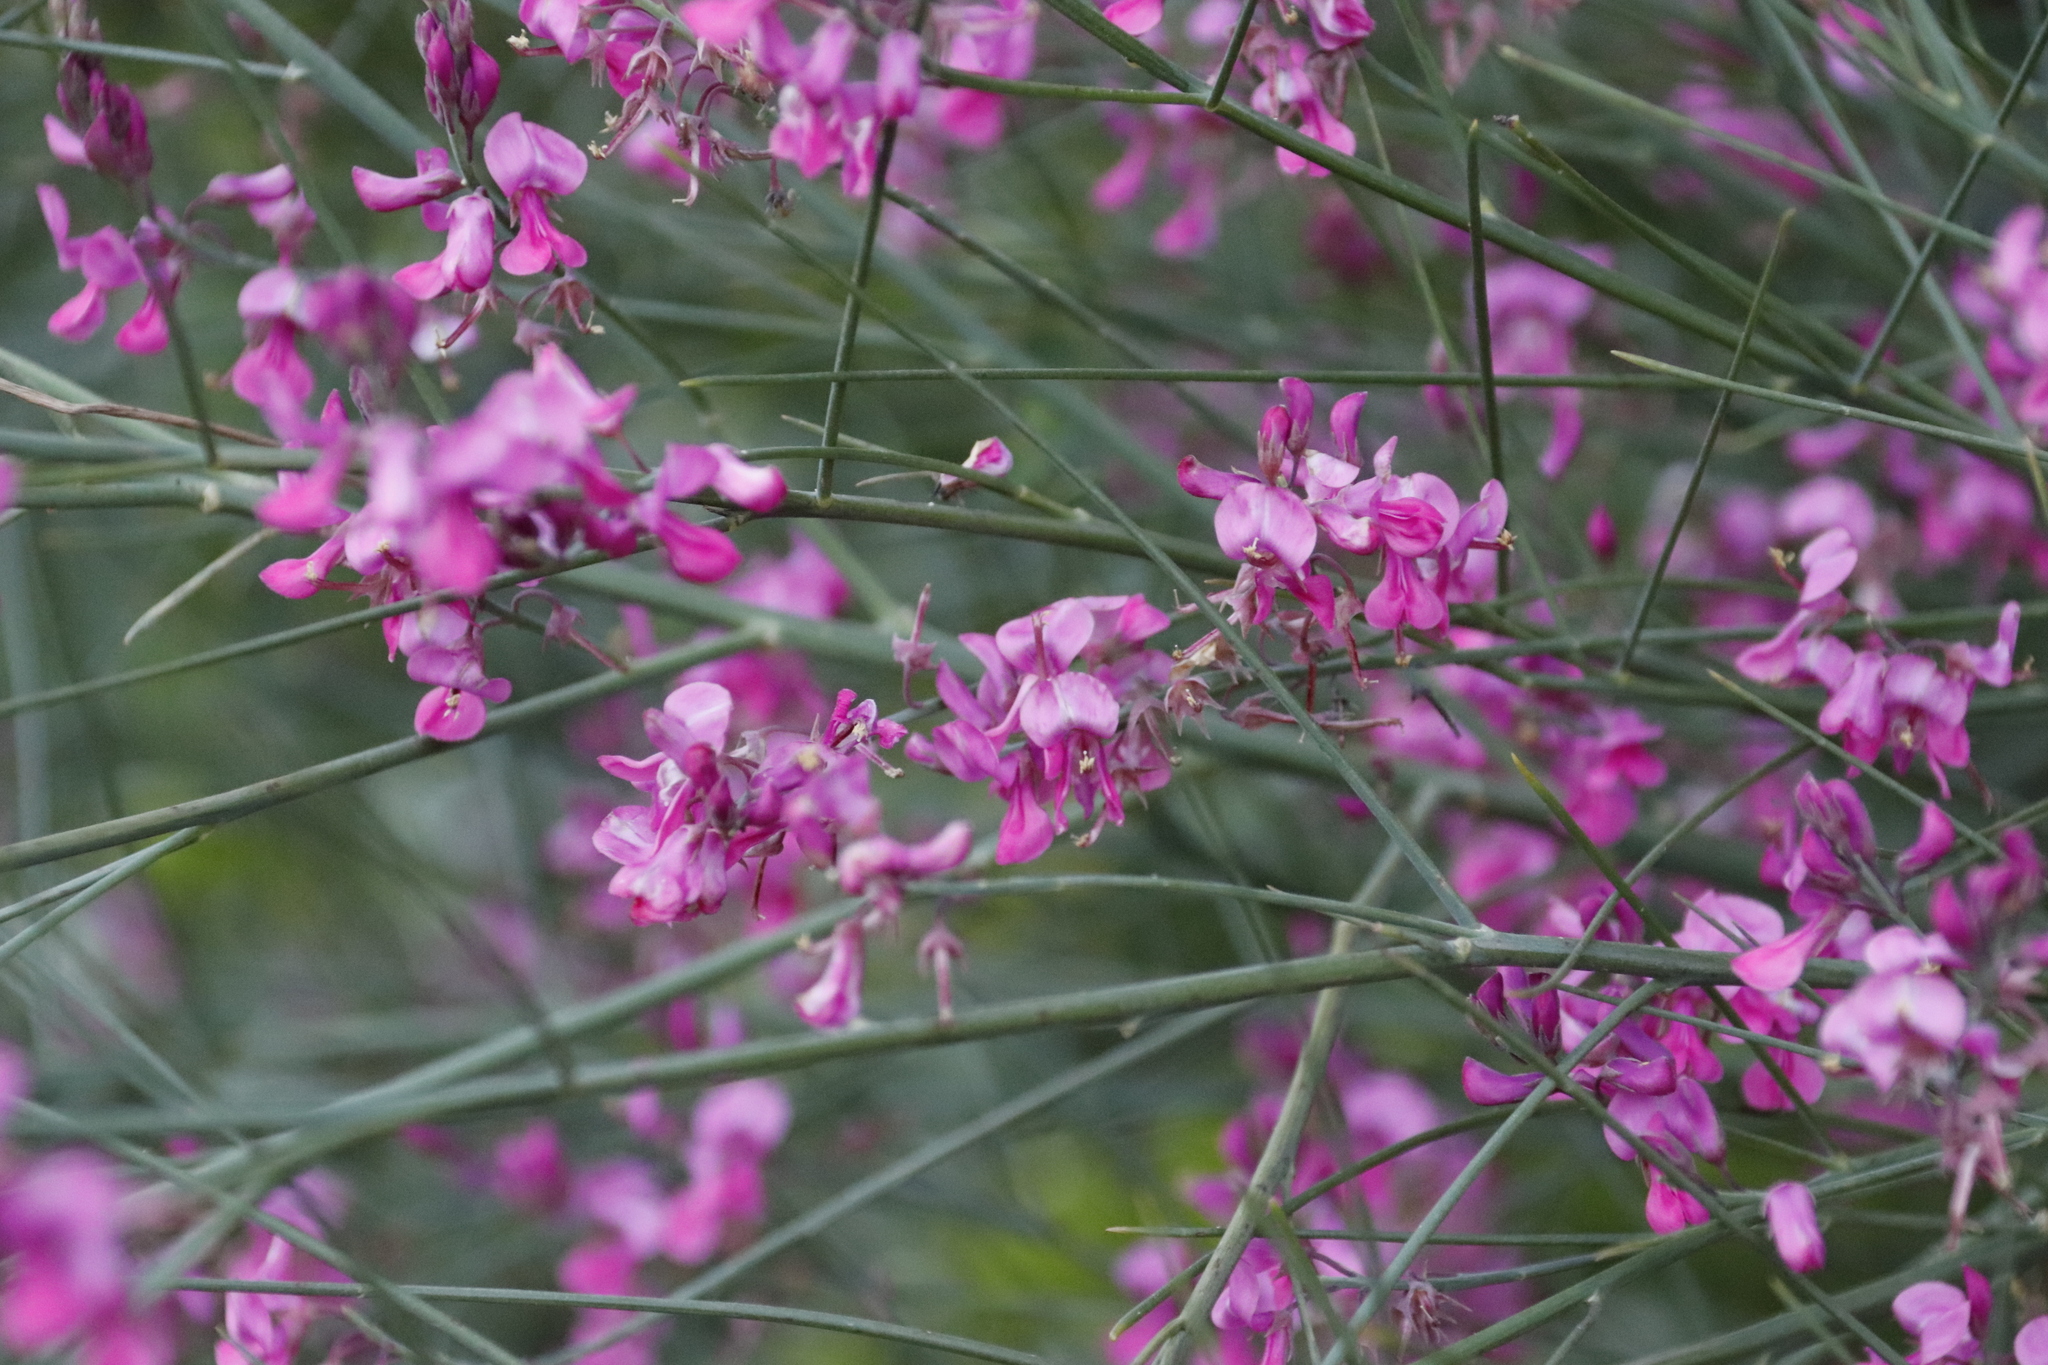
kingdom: Plantae
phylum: Tracheophyta
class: Magnoliopsida
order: Fabales
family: Fabaceae
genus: Indigofera
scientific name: Indigofera filifolia
